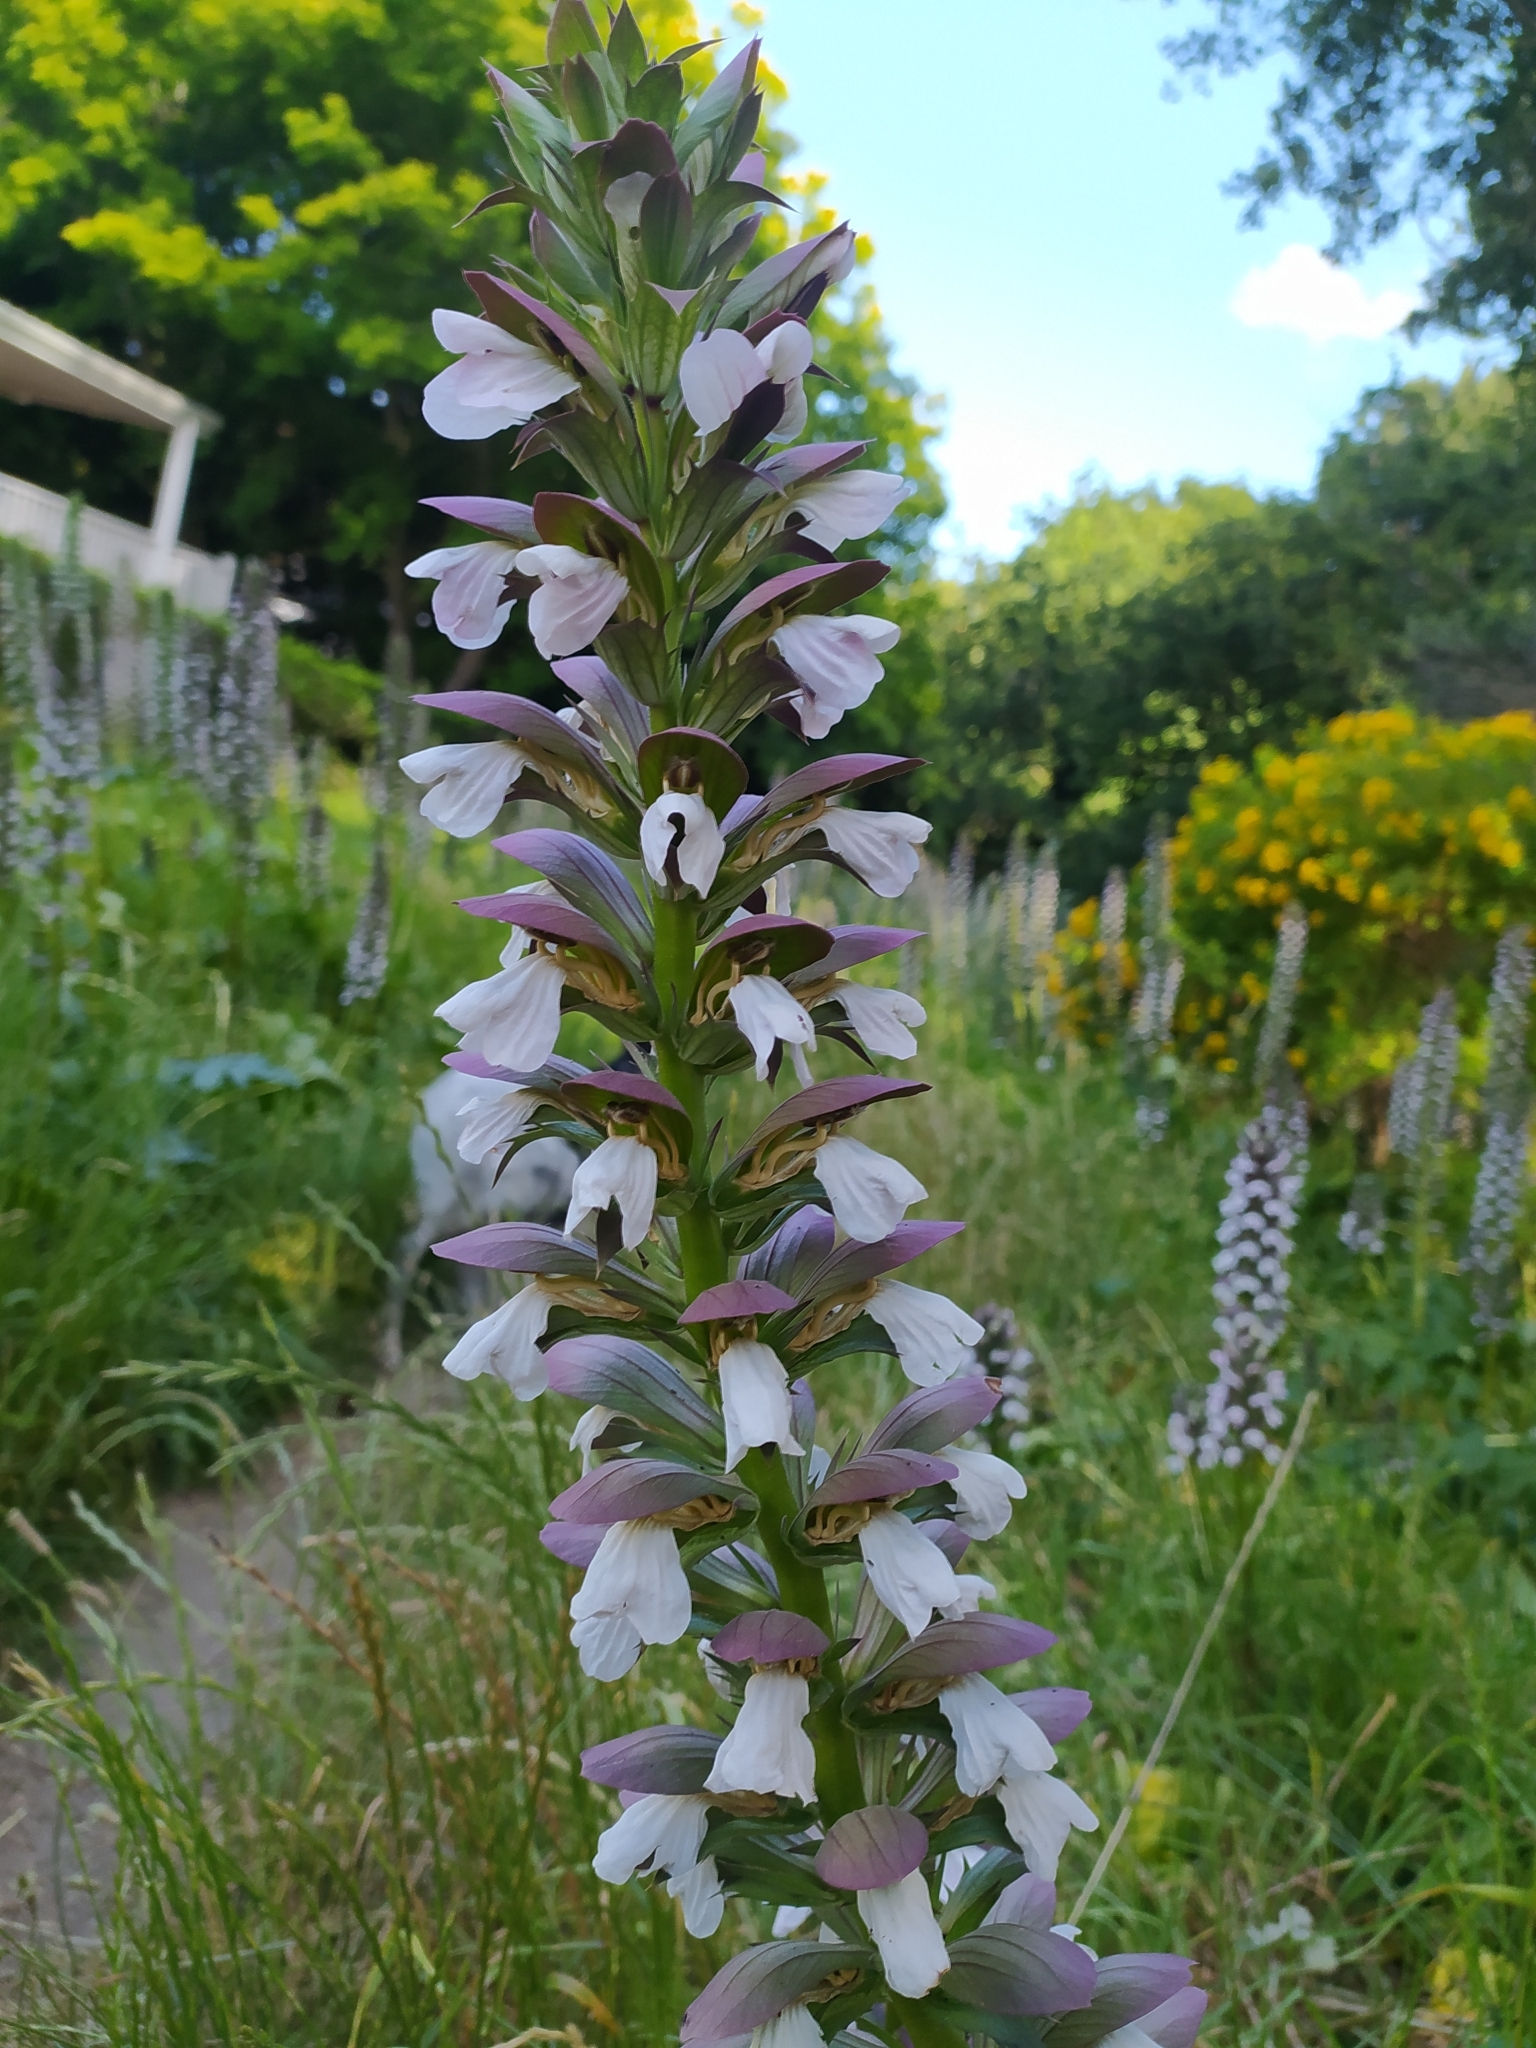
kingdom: Plantae
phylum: Tracheophyta
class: Magnoliopsida
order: Lamiales
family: Acanthaceae
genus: Acanthus
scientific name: Acanthus mollis
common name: Bear's-breech
